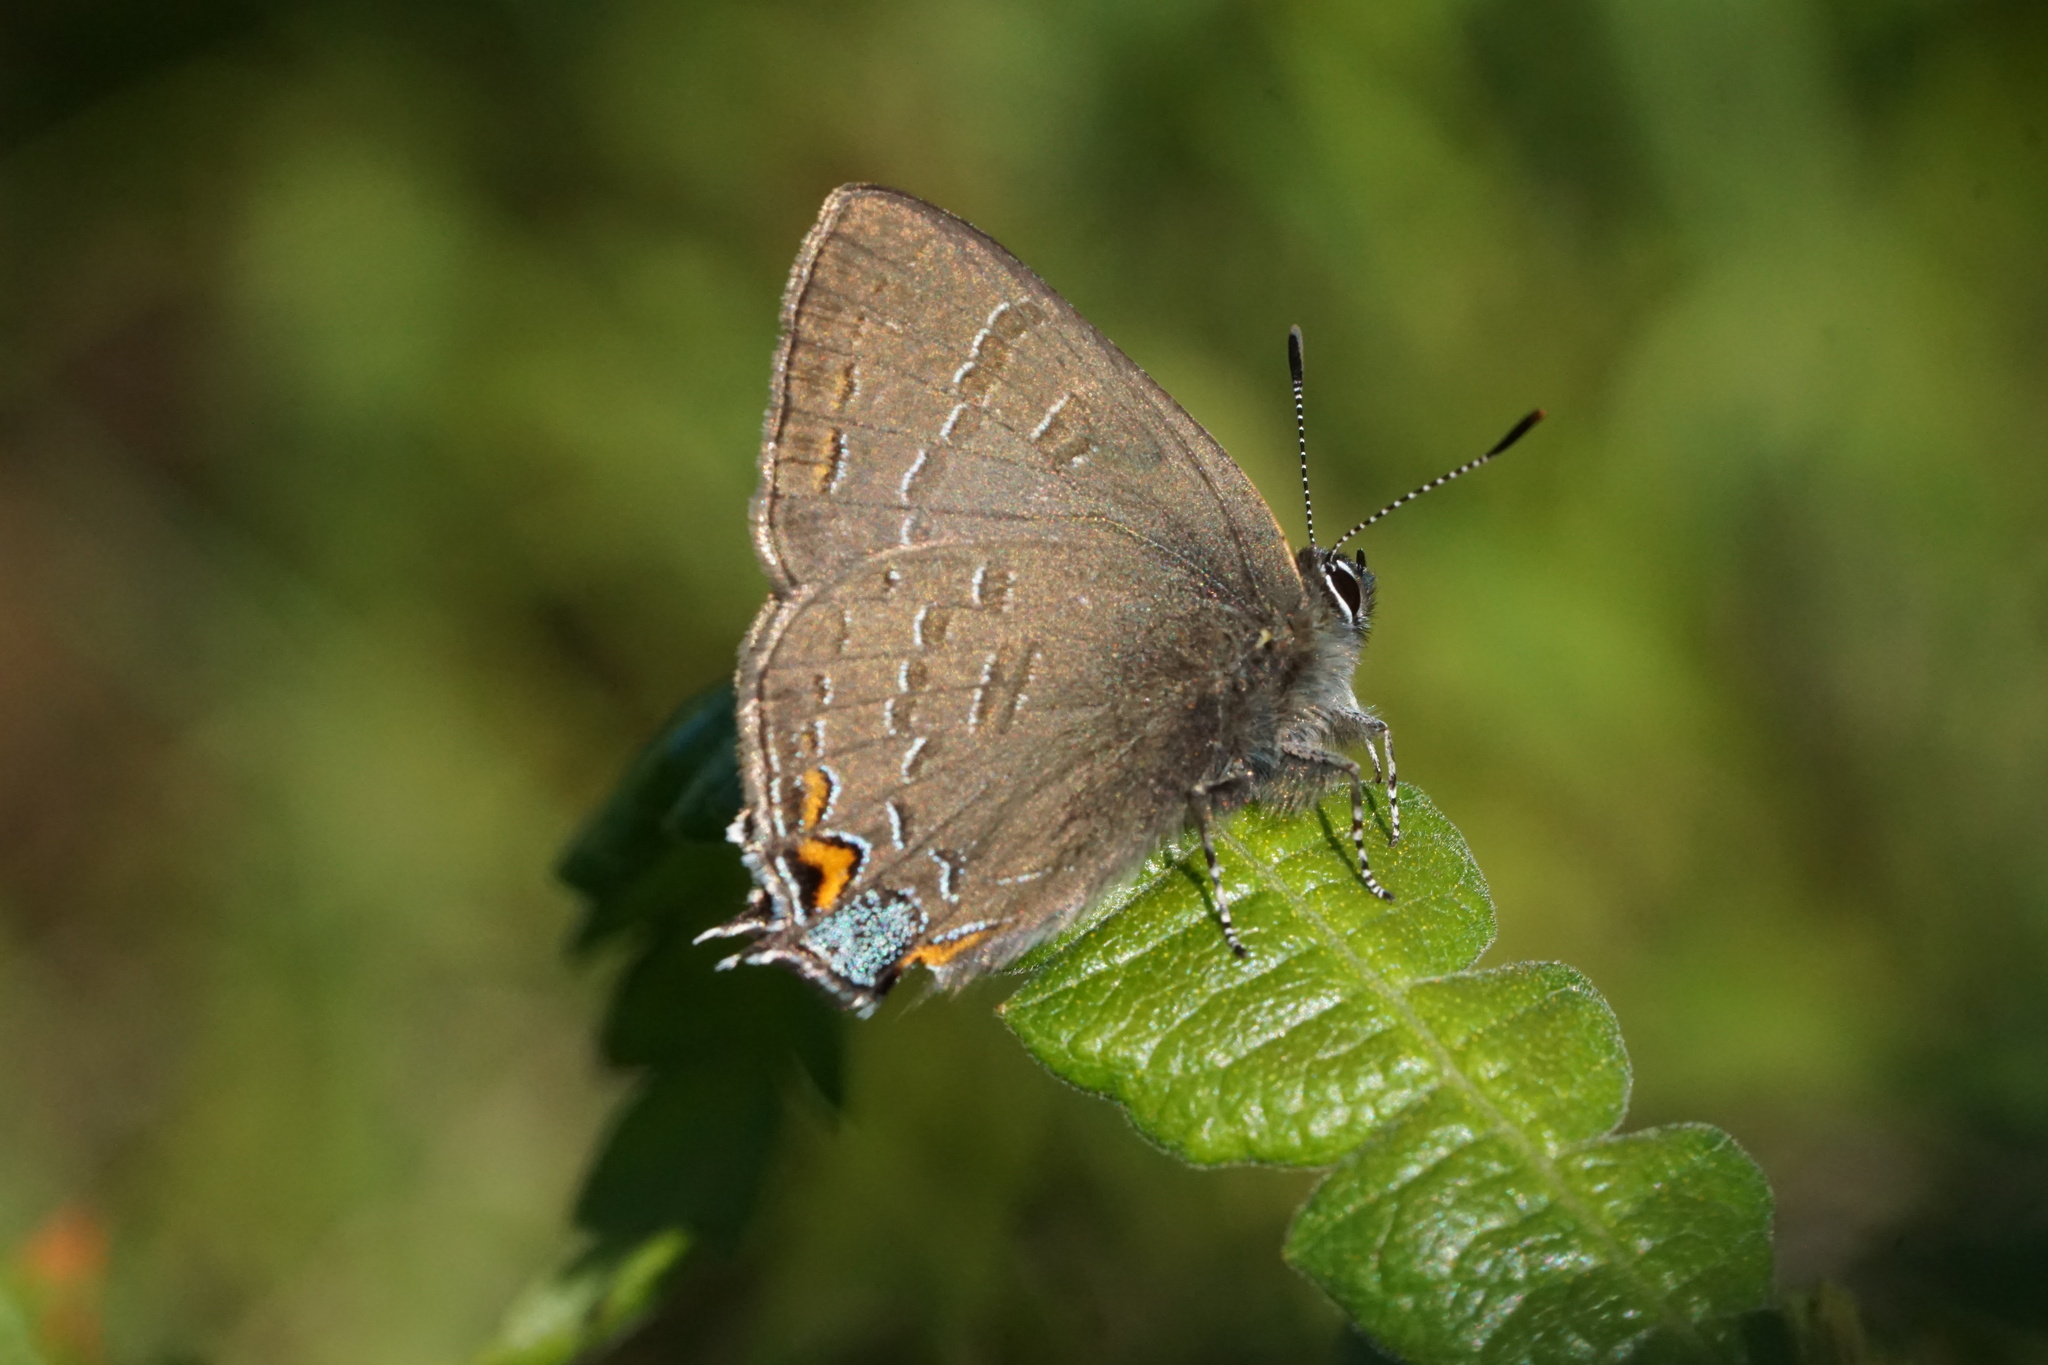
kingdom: Animalia
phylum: Arthropoda
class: Insecta
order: Lepidoptera
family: Lycaenidae
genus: Satyrium
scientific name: Satyrium calanus
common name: Banded hairstreak
